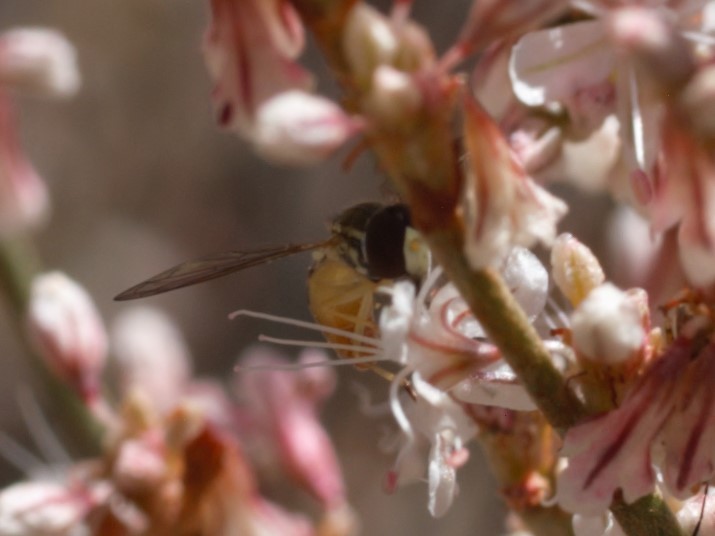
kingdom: Animalia
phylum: Arthropoda
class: Insecta
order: Diptera
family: Syrphidae
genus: Toxomerus
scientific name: Toxomerus marginatus
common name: Syrphid fly
